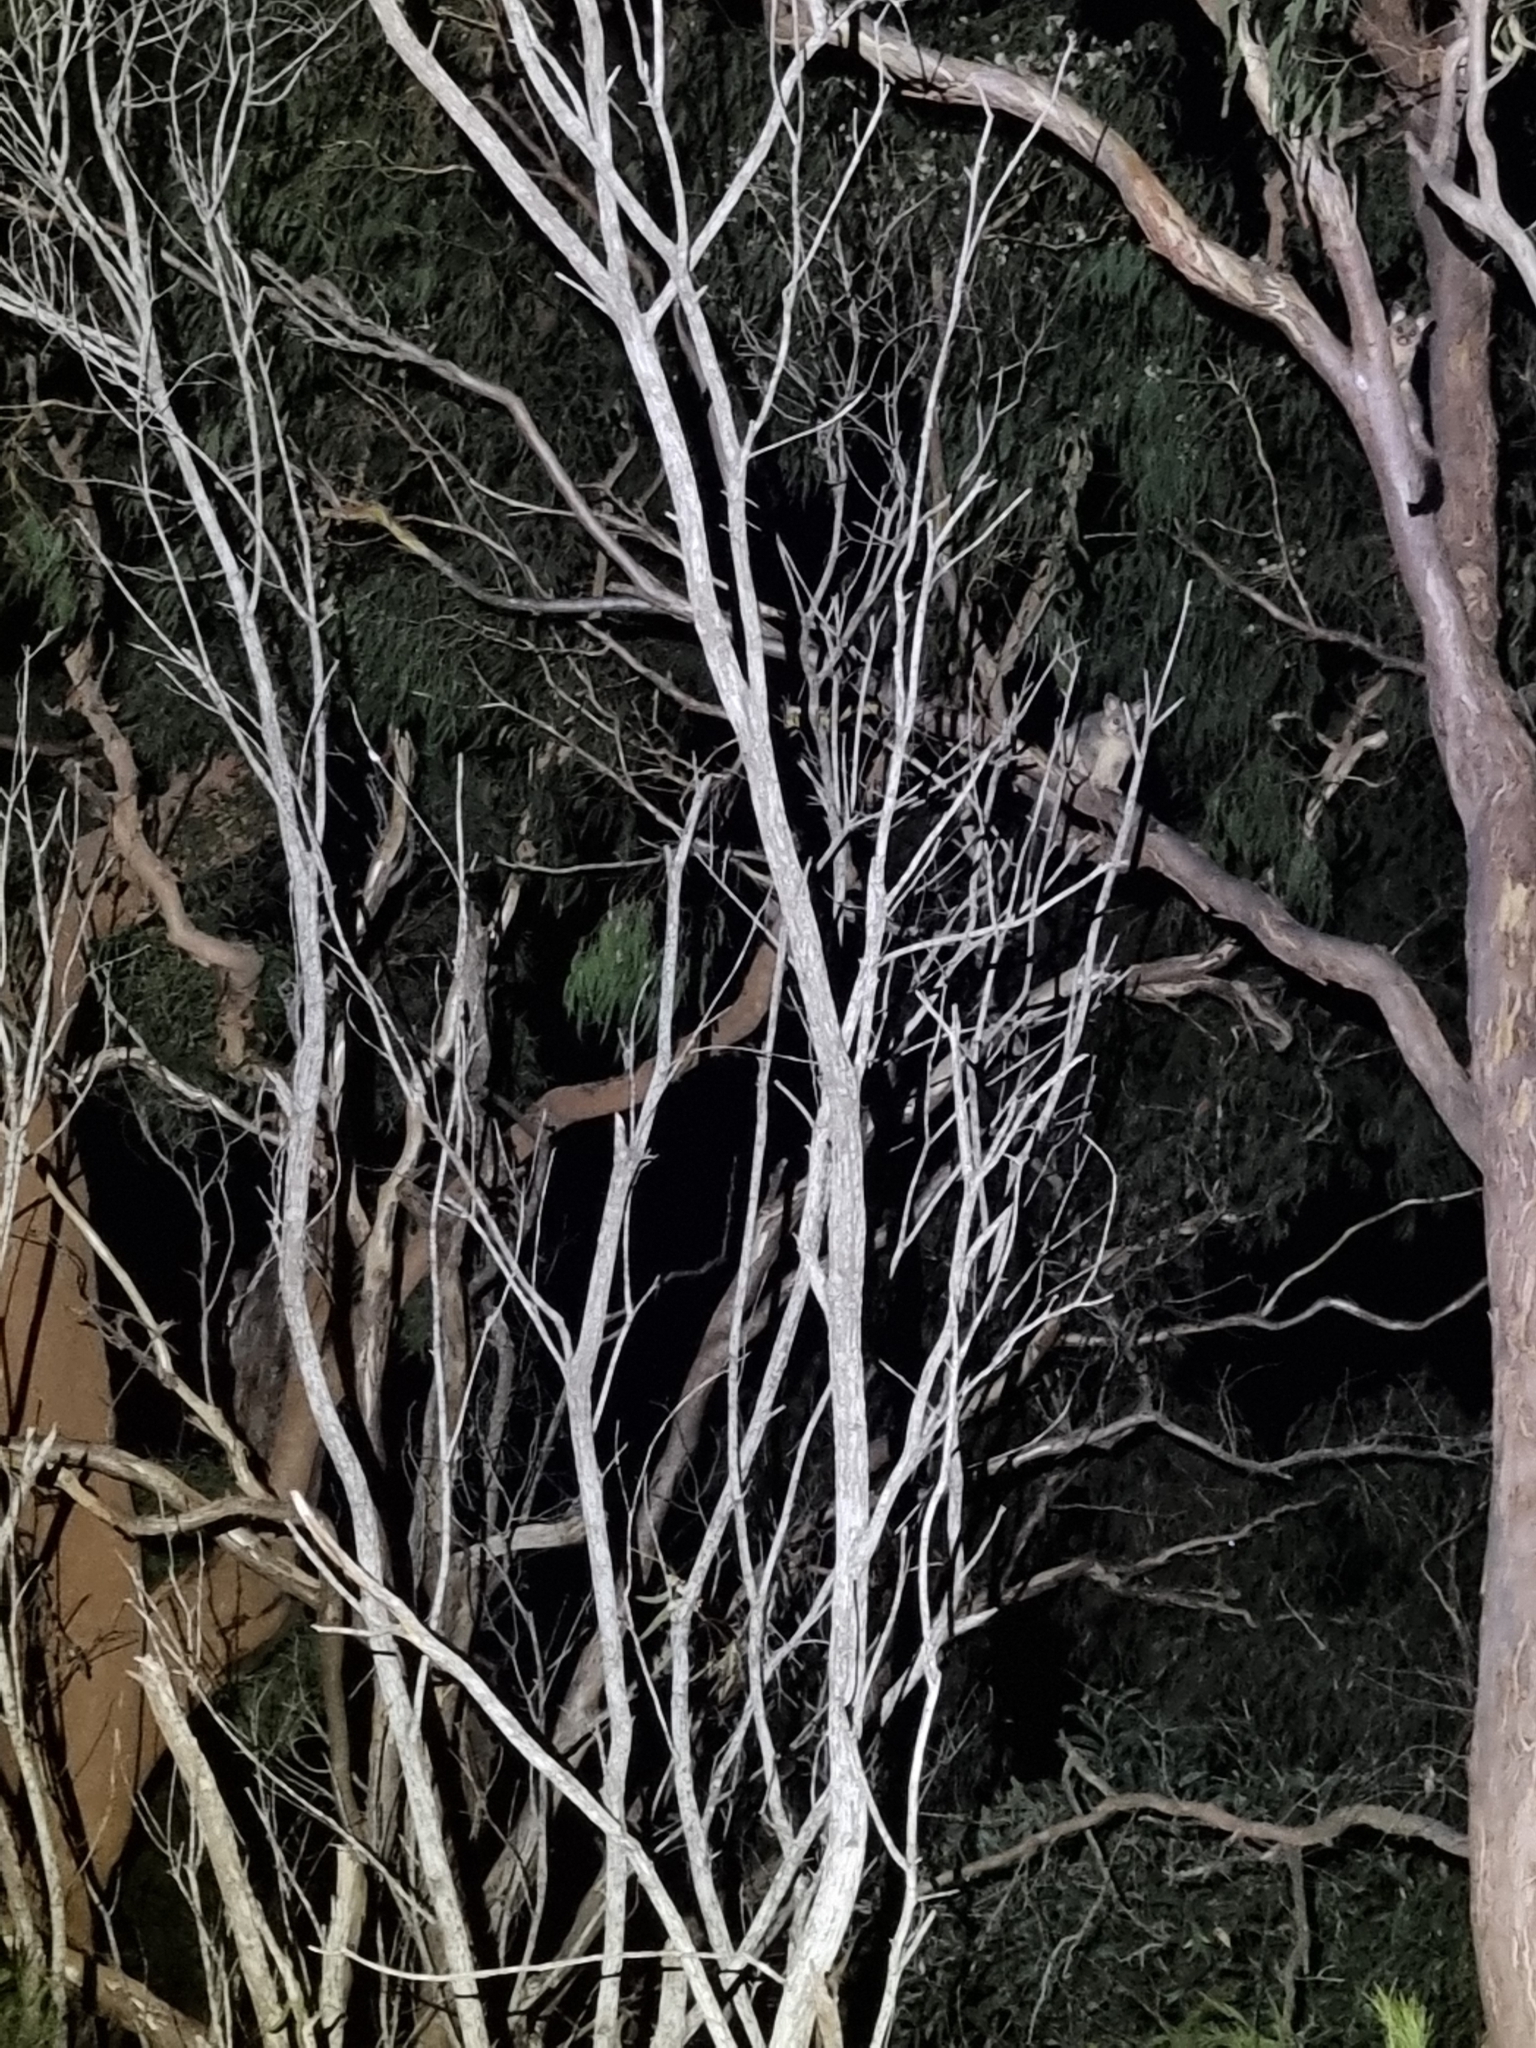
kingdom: Animalia
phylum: Chordata
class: Mammalia
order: Diprotodontia
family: Phalangeridae
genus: Trichosurus
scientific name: Trichosurus vulpecula
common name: Common brushtail
